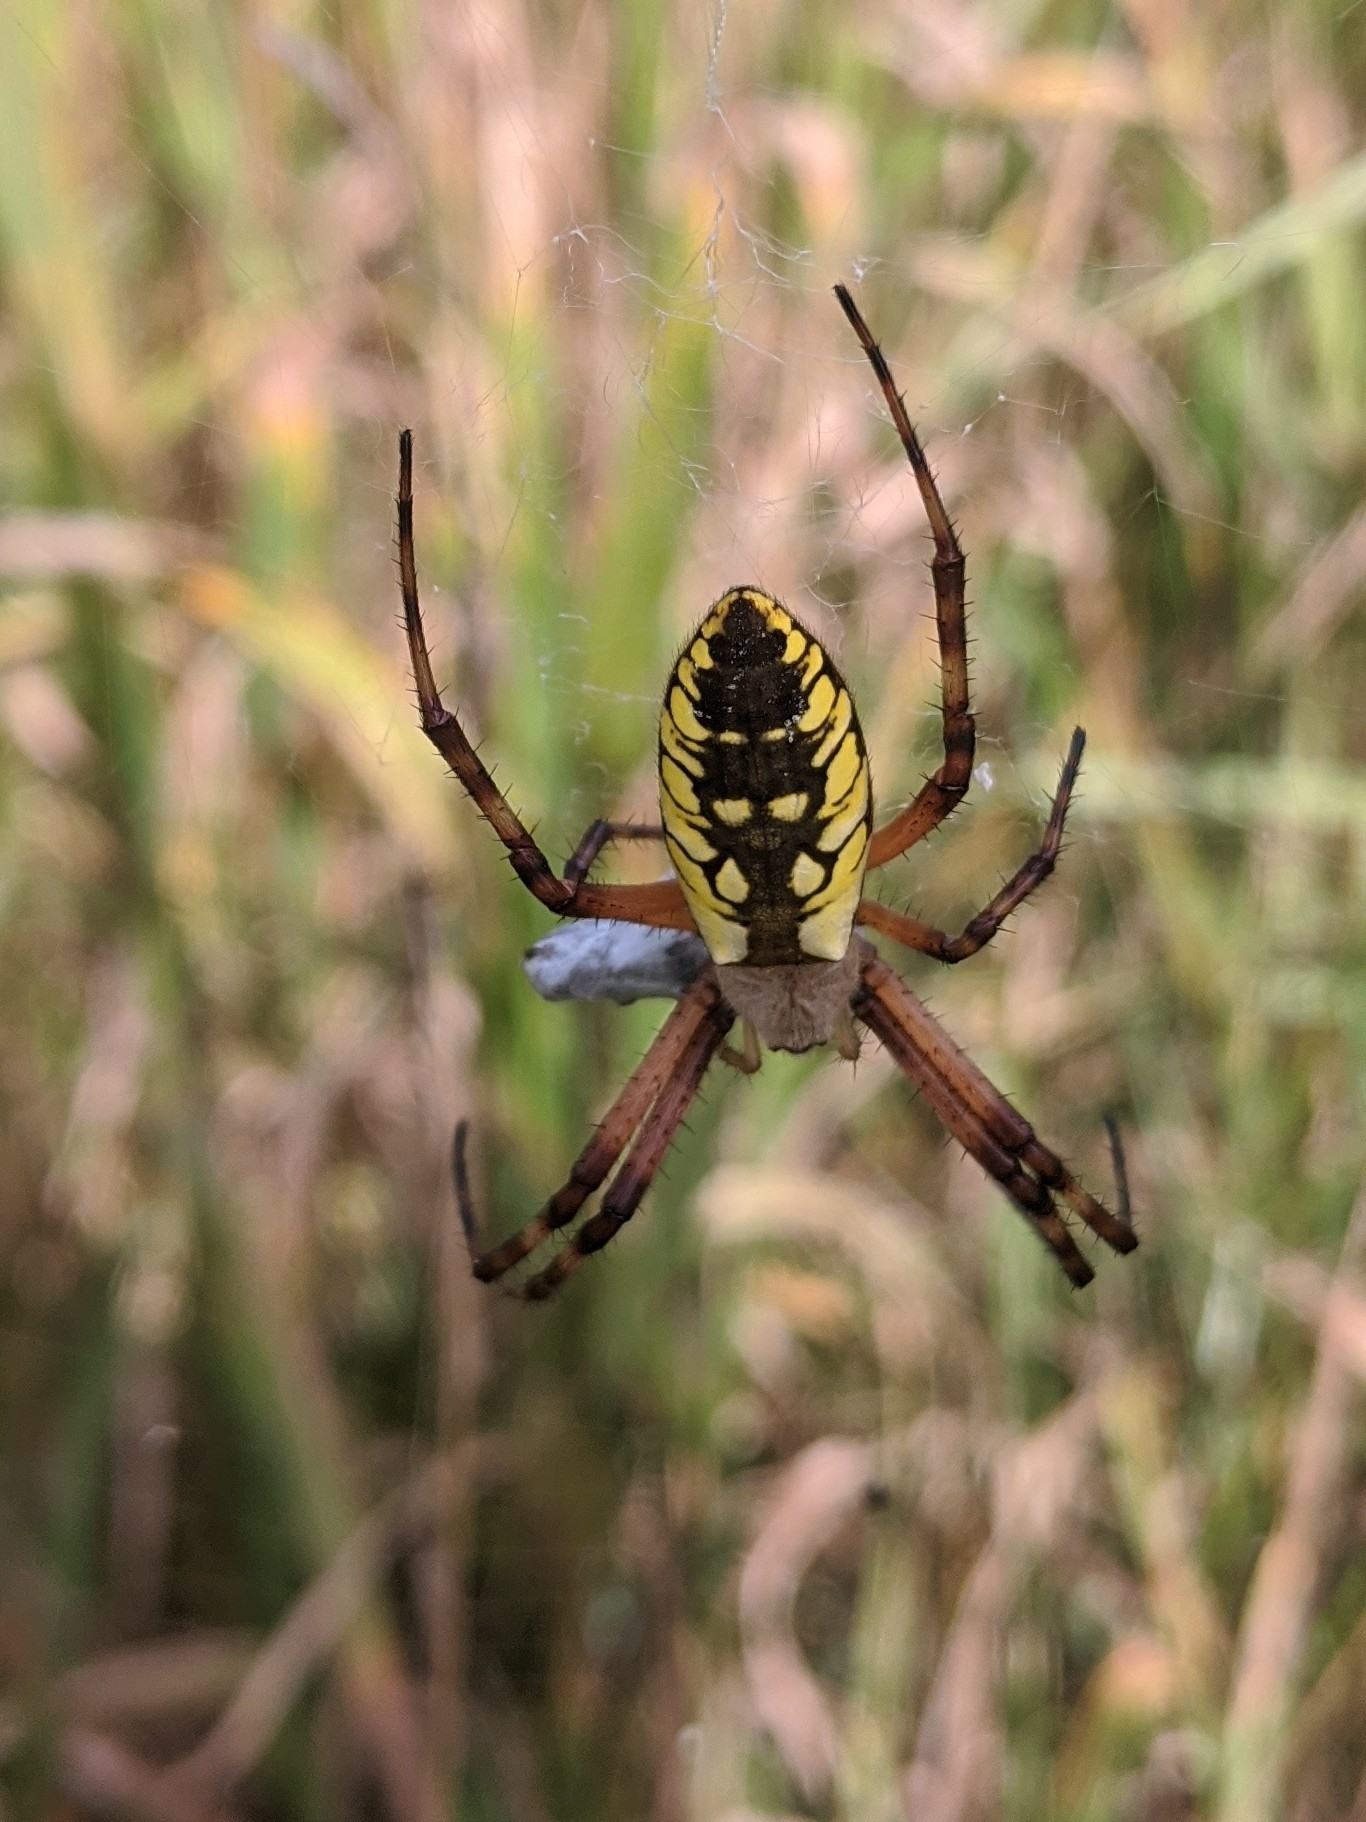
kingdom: Animalia
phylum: Arthropoda
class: Arachnida
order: Araneae
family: Araneidae
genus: Argiope
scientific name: Argiope aurantia
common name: Orb weavers
